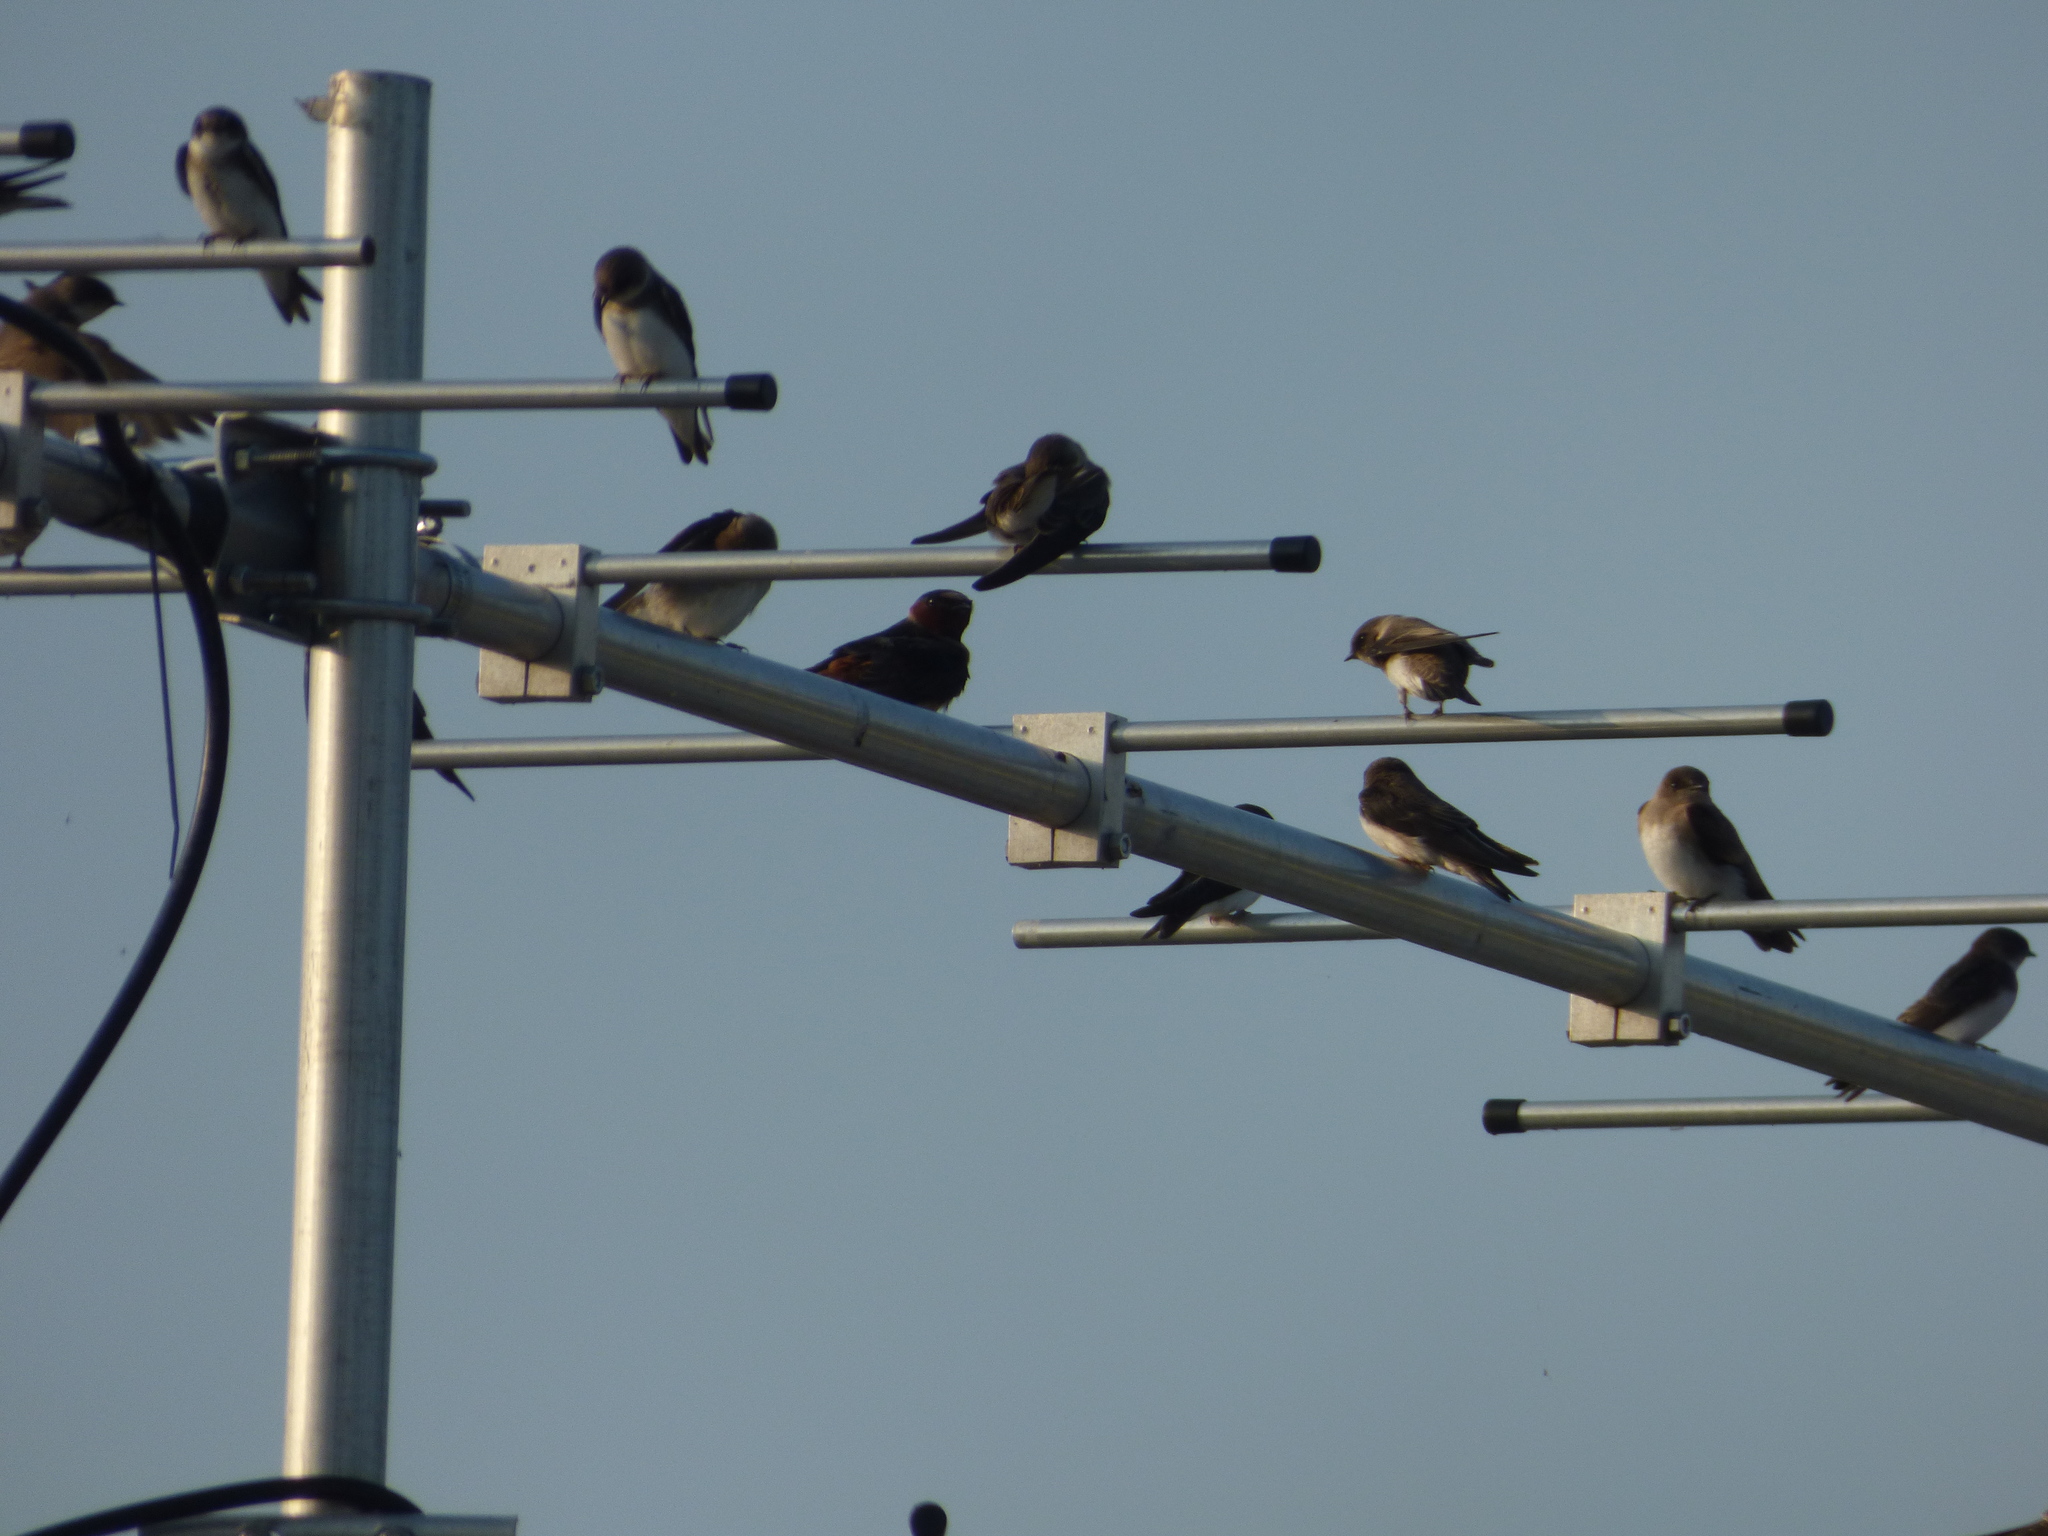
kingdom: Animalia
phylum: Chordata
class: Aves
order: Passeriformes
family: Hirundinidae
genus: Petrochelidon
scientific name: Petrochelidon pyrrhonota
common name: American cliff swallow
